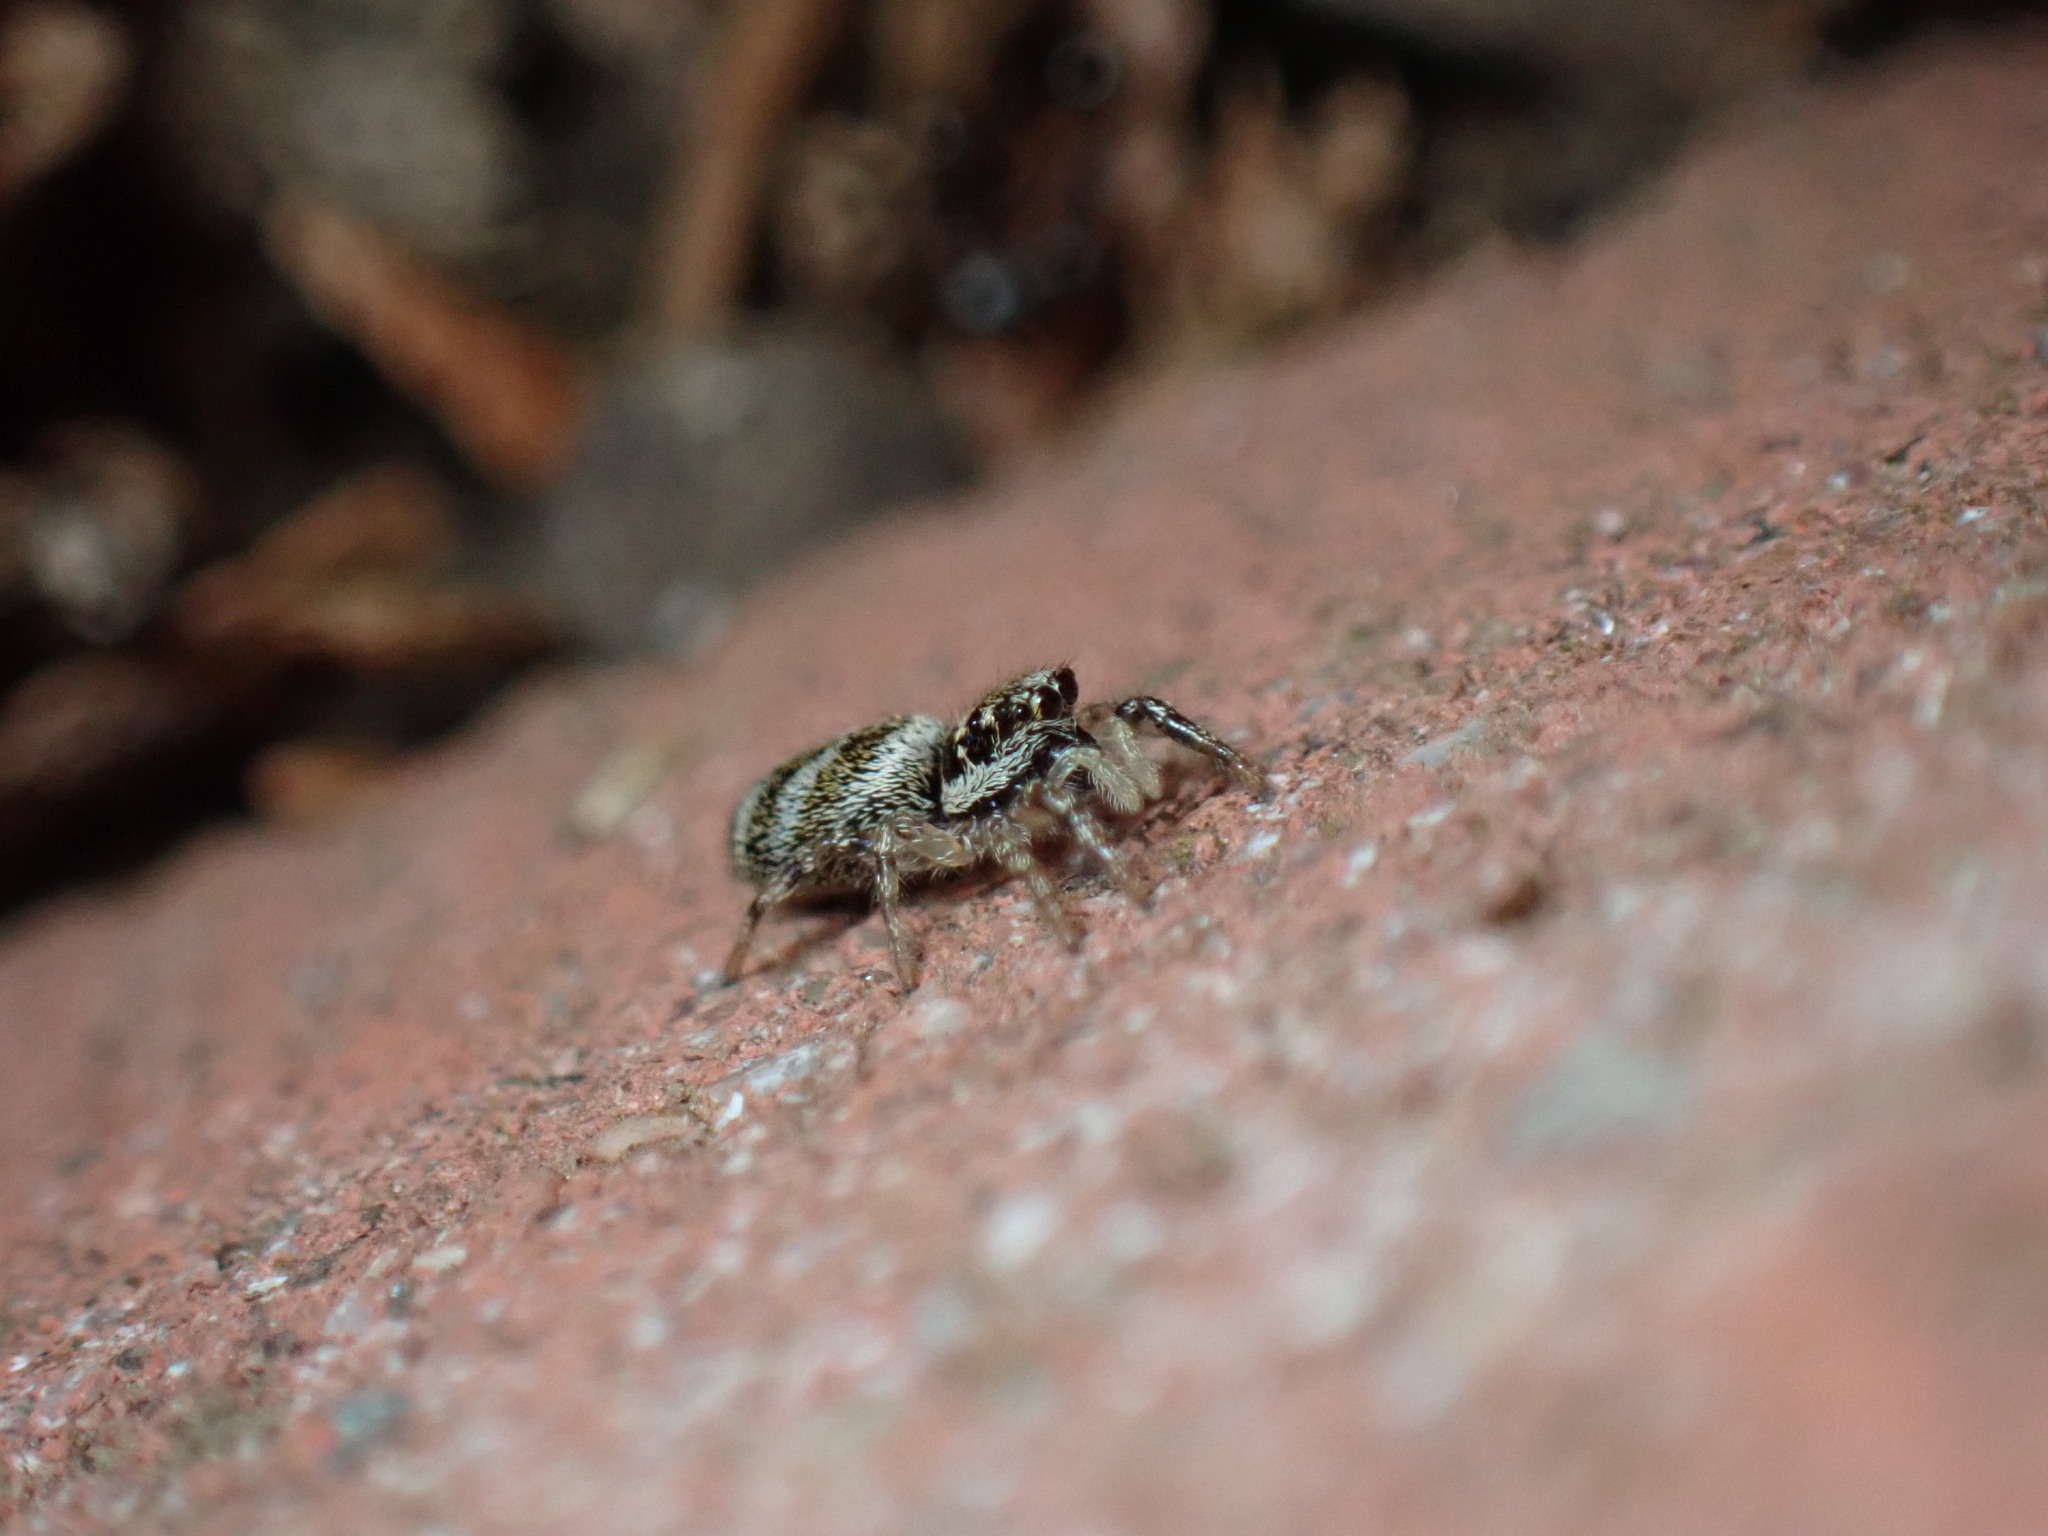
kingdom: Animalia
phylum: Arthropoda
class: Arachnida
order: Araneae
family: Salticidae
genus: Salticus
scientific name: Salticus scenicus
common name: Zebra jumper
